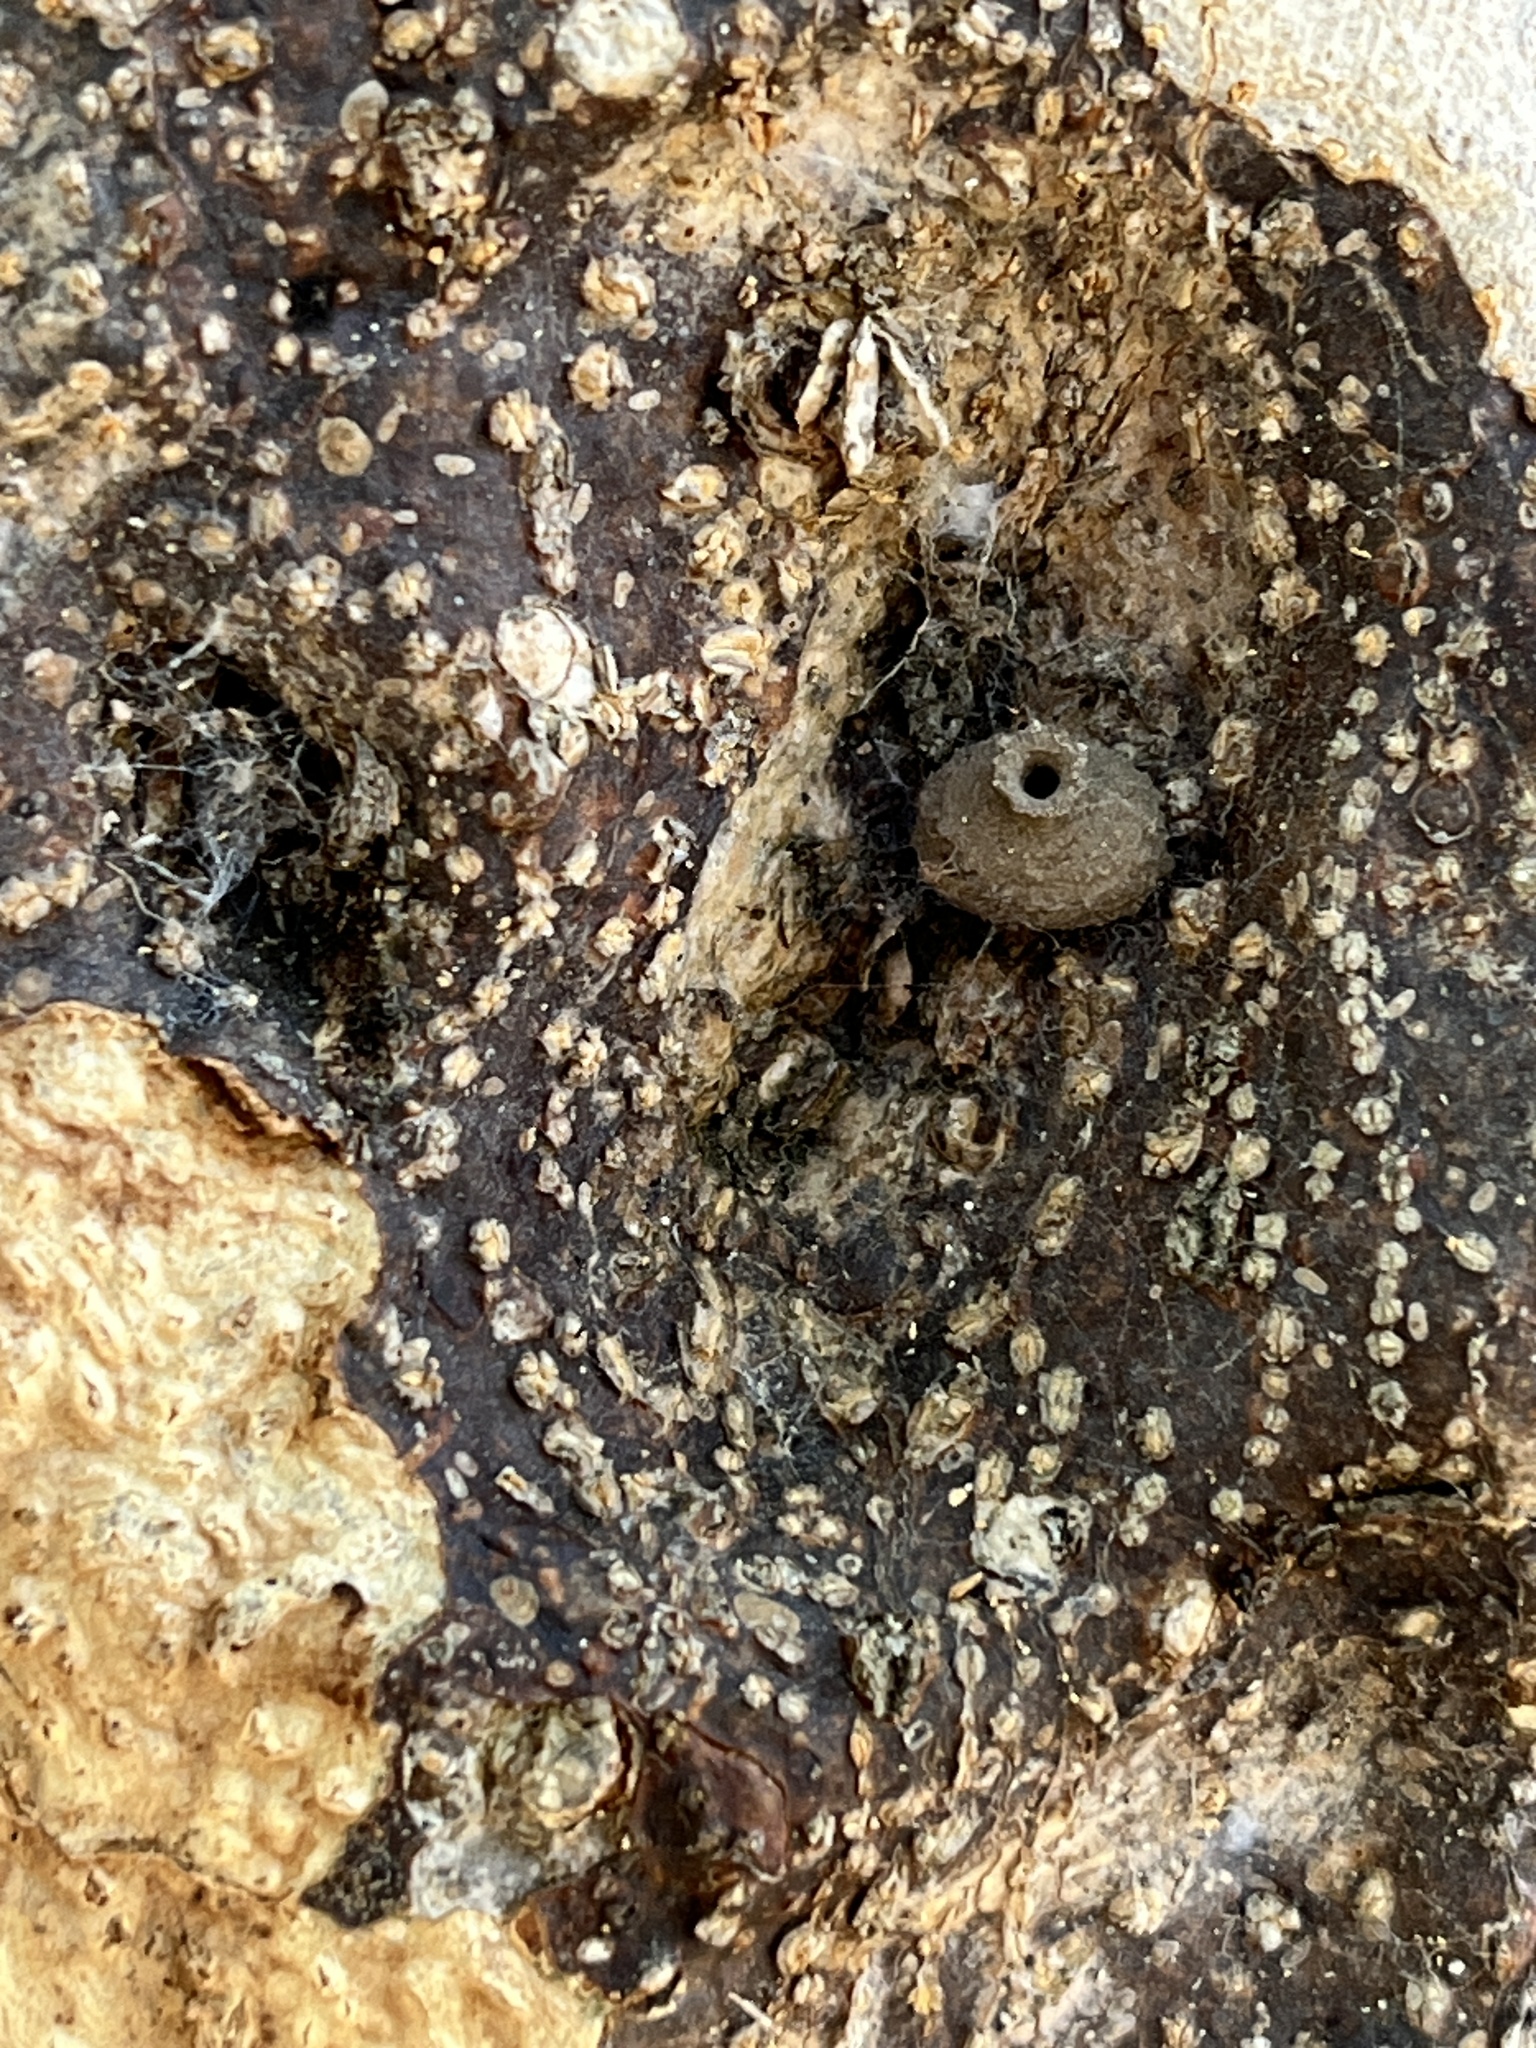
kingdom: Animalia
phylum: Arthropoda
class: Insecta
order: Hymenoptera
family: Eumenidae
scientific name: Eumenidae
